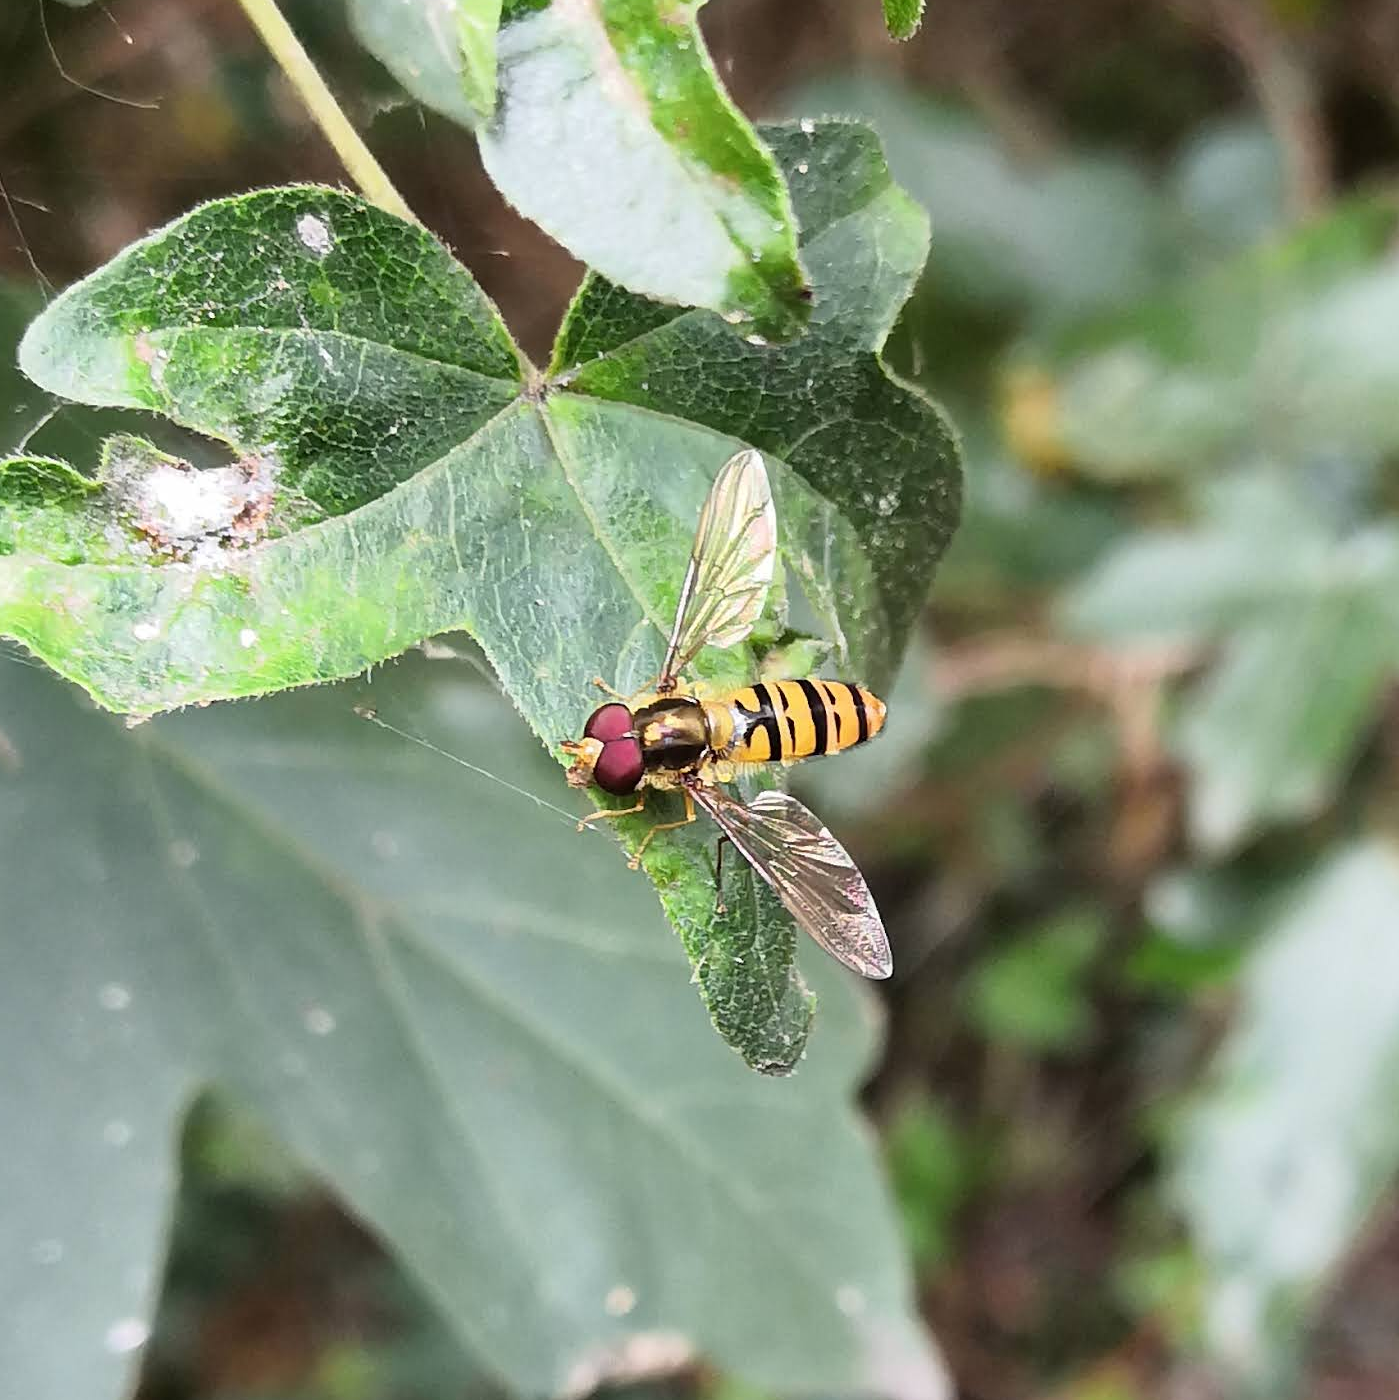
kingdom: Animalia
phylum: Arthropoda
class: Insecta
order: Diptera
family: Syrphidae
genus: Episyrphus
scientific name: Episyrphus balteatus
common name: Marmalade hoverfly
